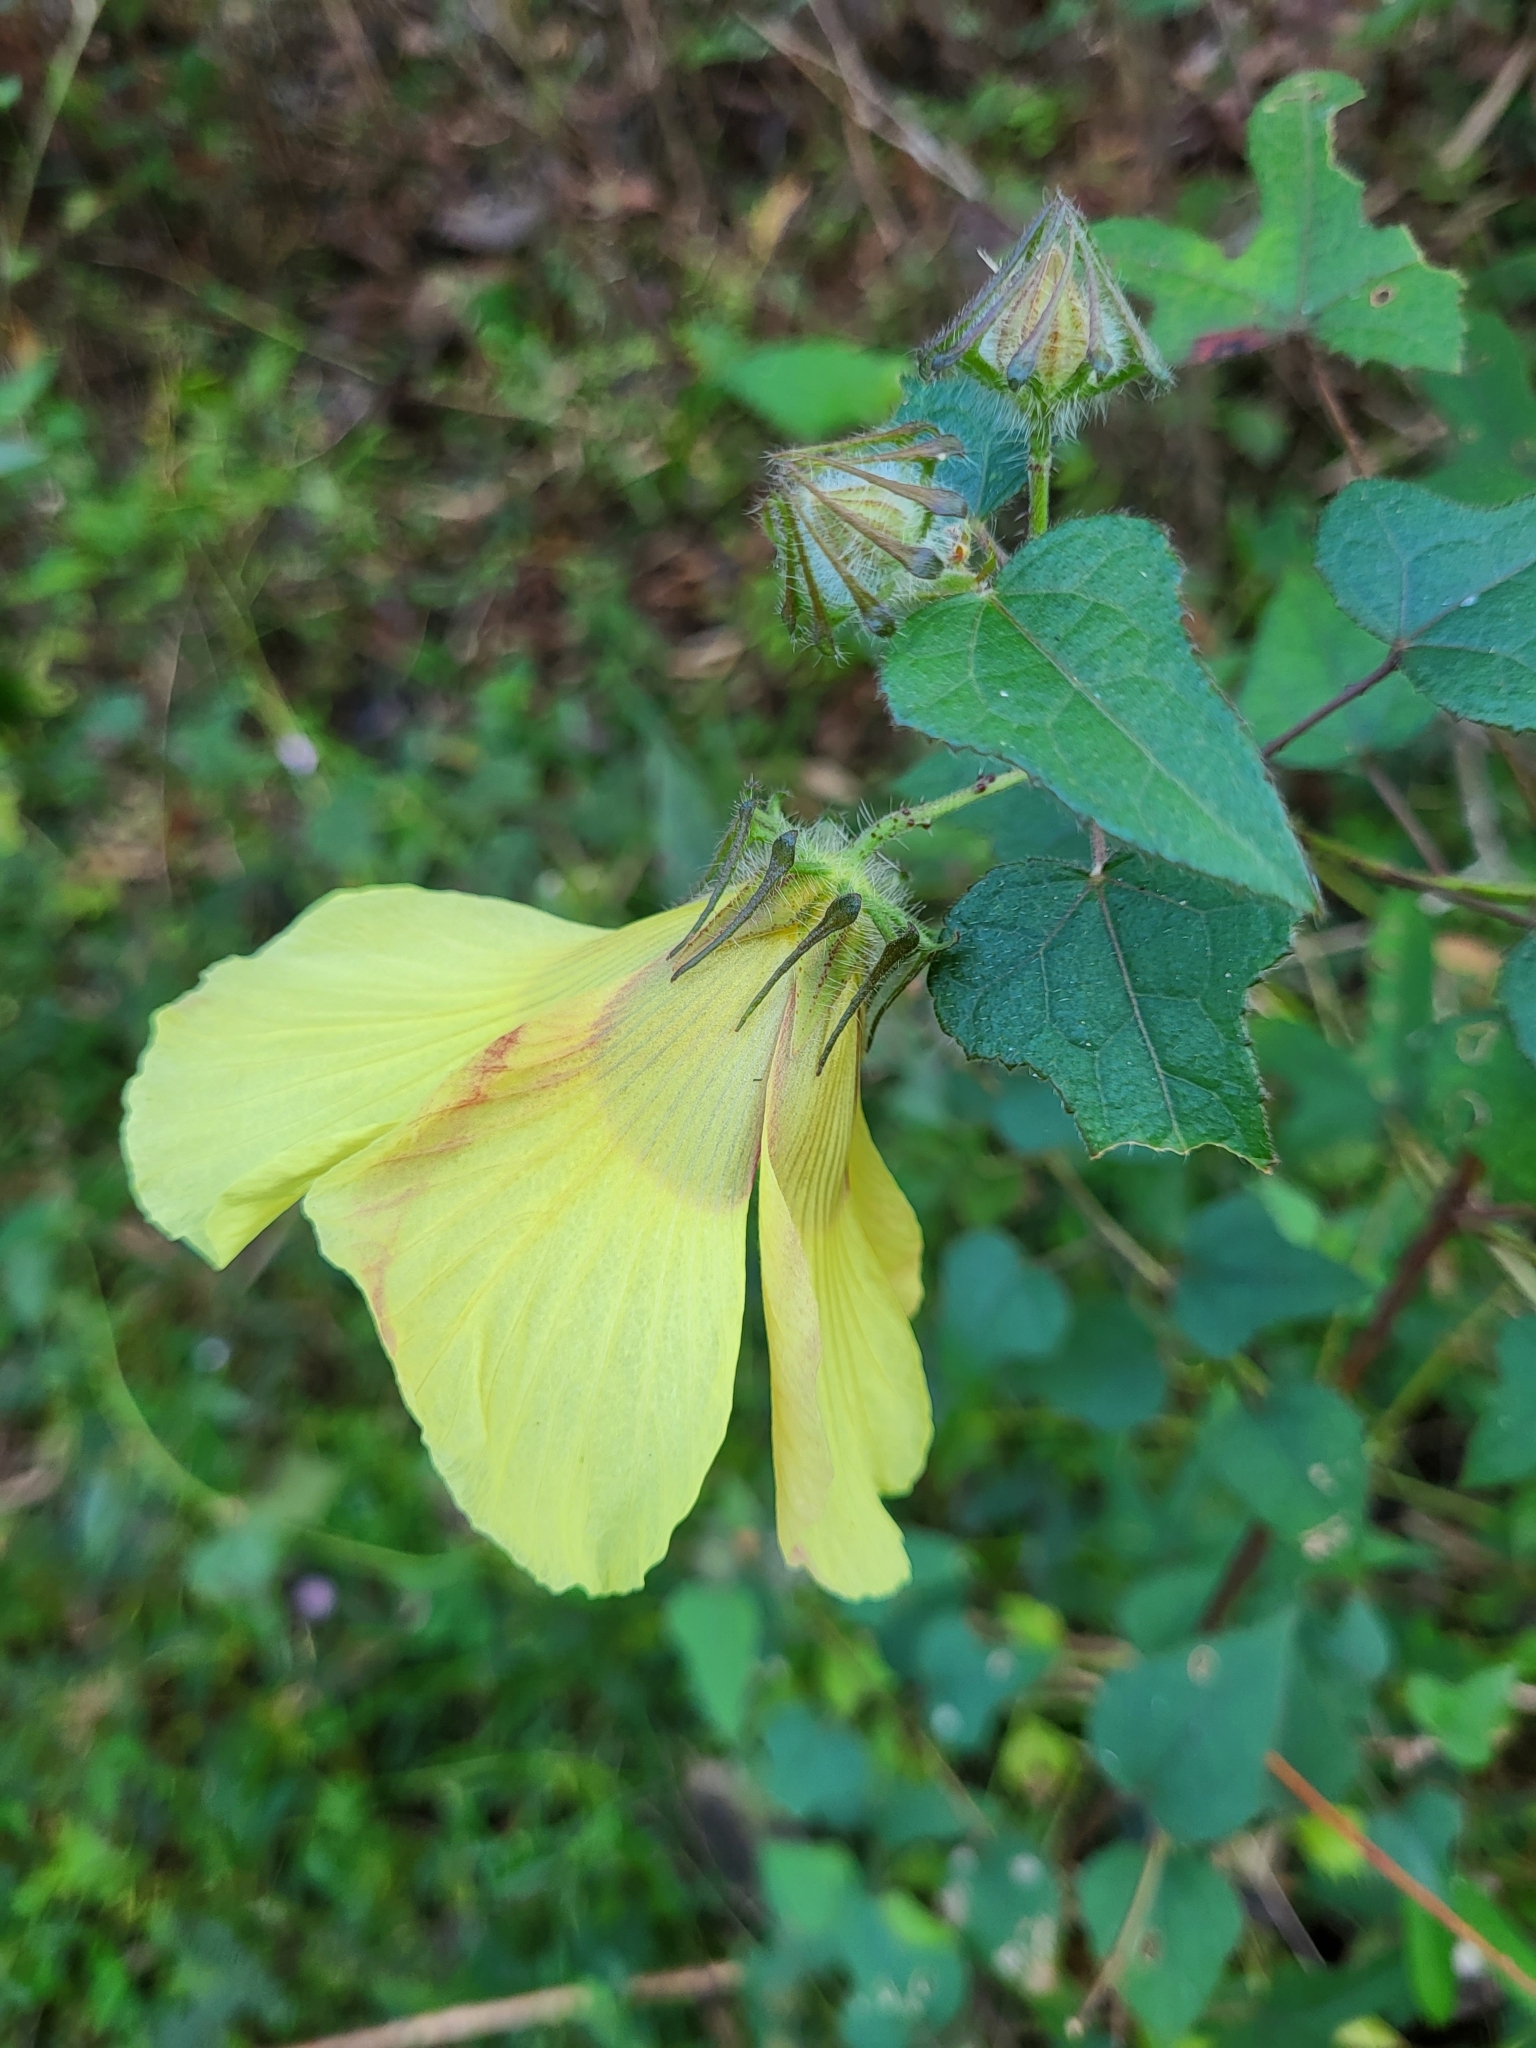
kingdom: Plantae
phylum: Tracheophyta
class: Magnoliopsida
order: Malvales
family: Malvaceae
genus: Hibiscus
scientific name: Hibiscus surattensis
